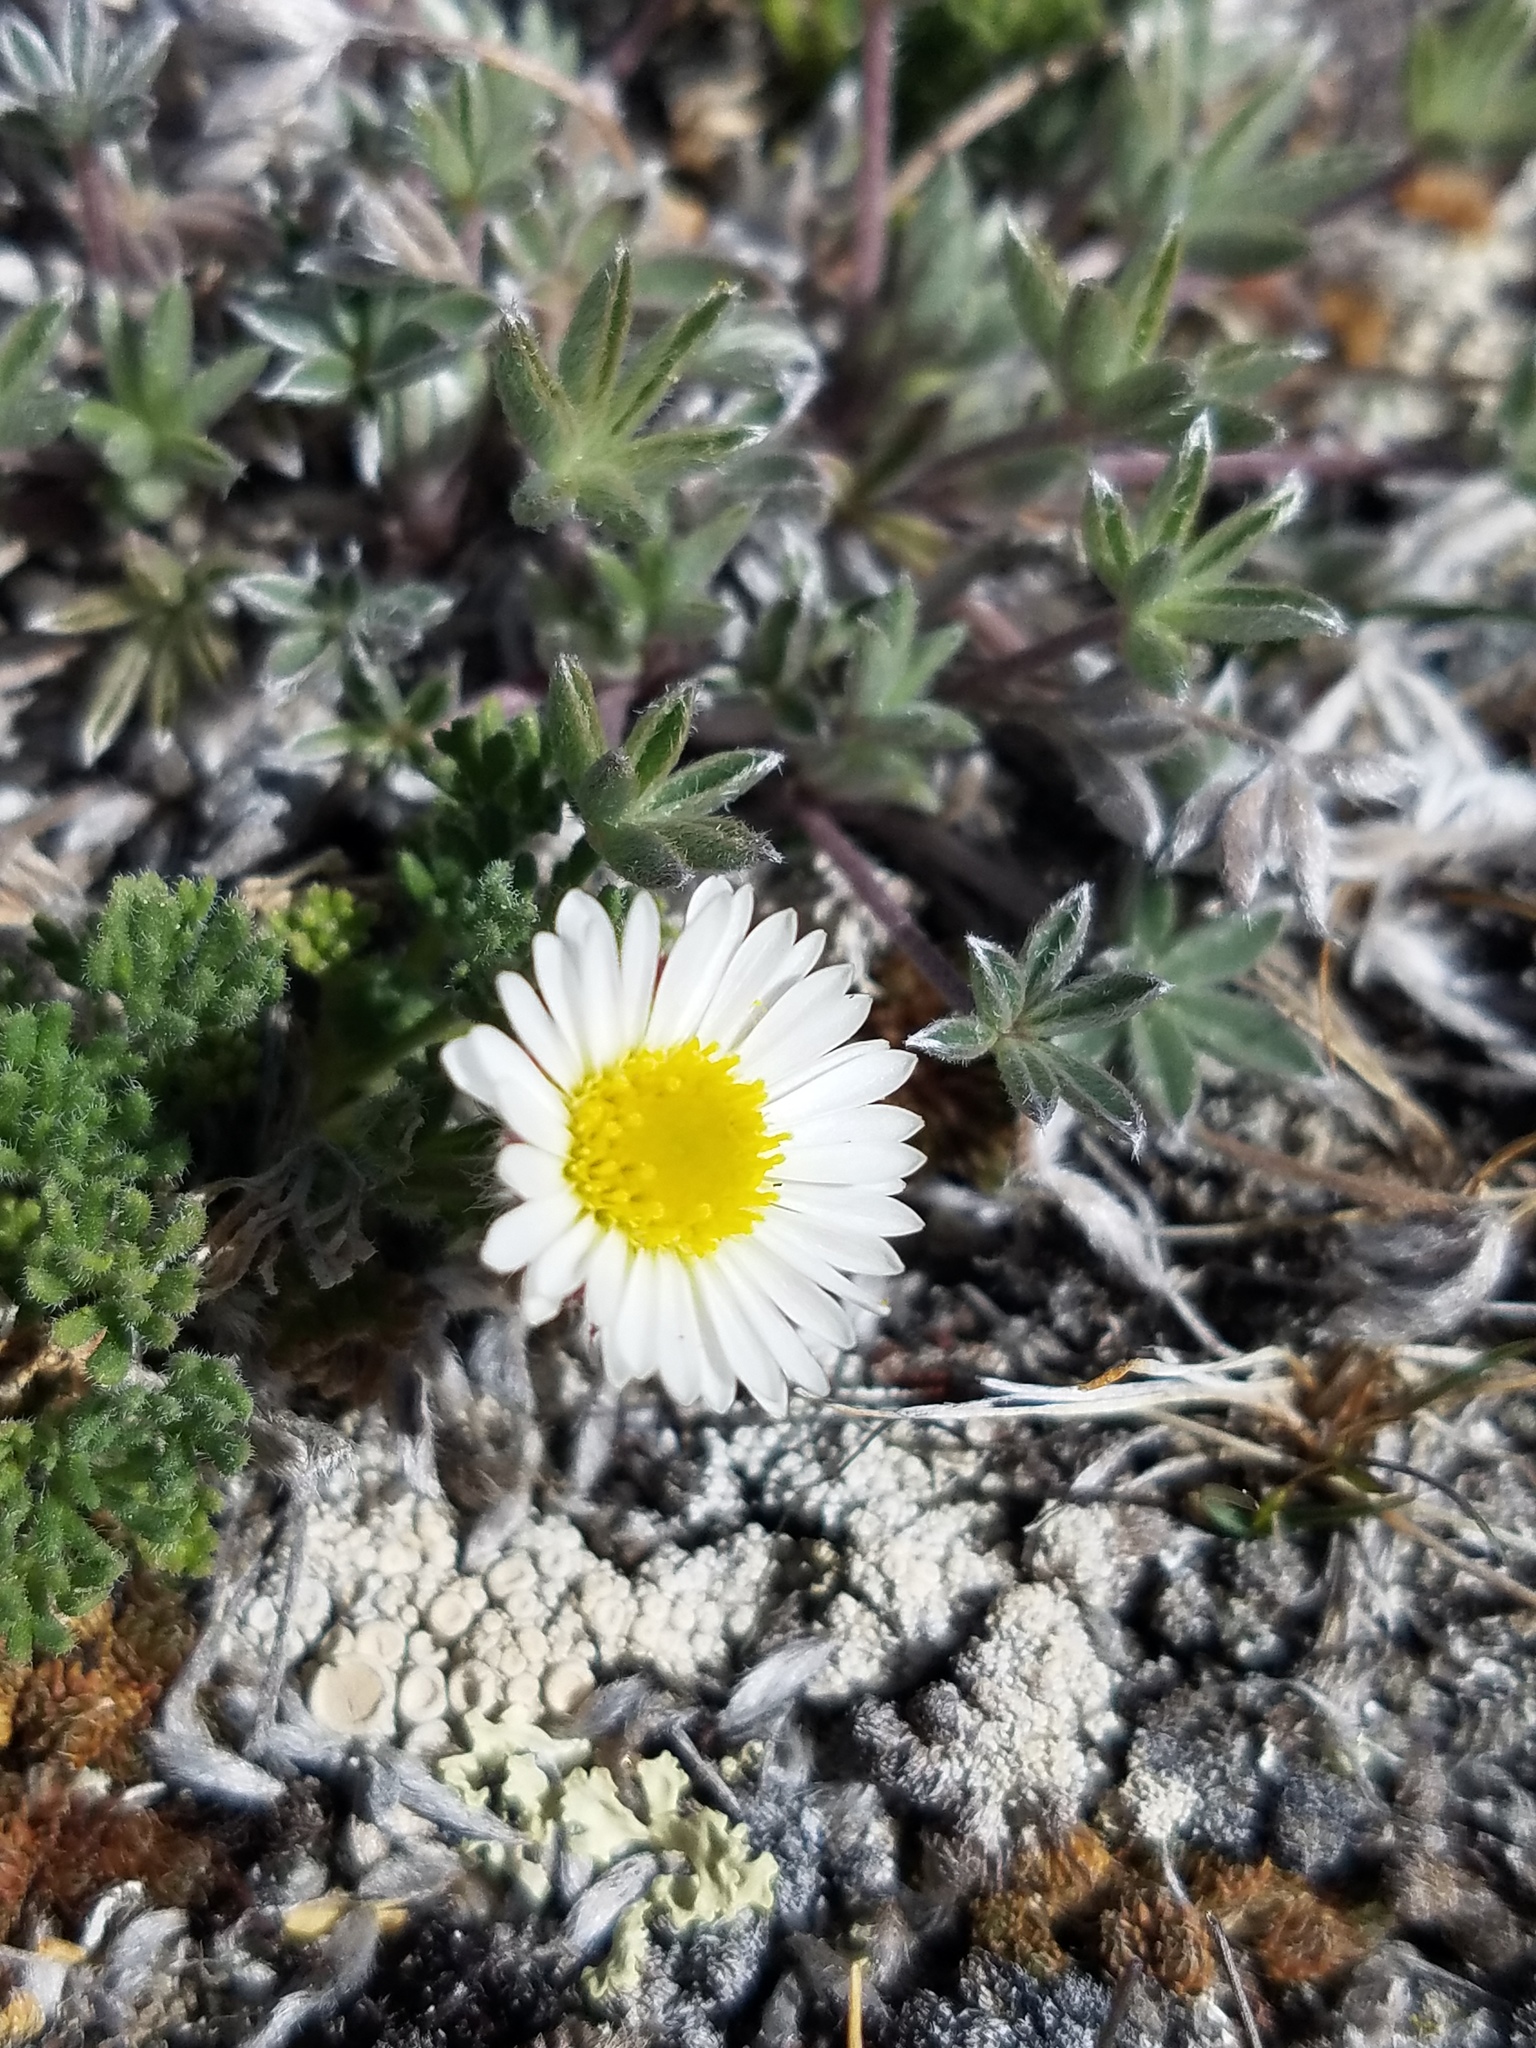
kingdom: Plantae
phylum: Tracheophyta
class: Magnoliopsida
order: Asterales
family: Asteraceae
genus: Erigeron
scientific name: Erigeron compositus
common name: Dwarf mountain fleabane
